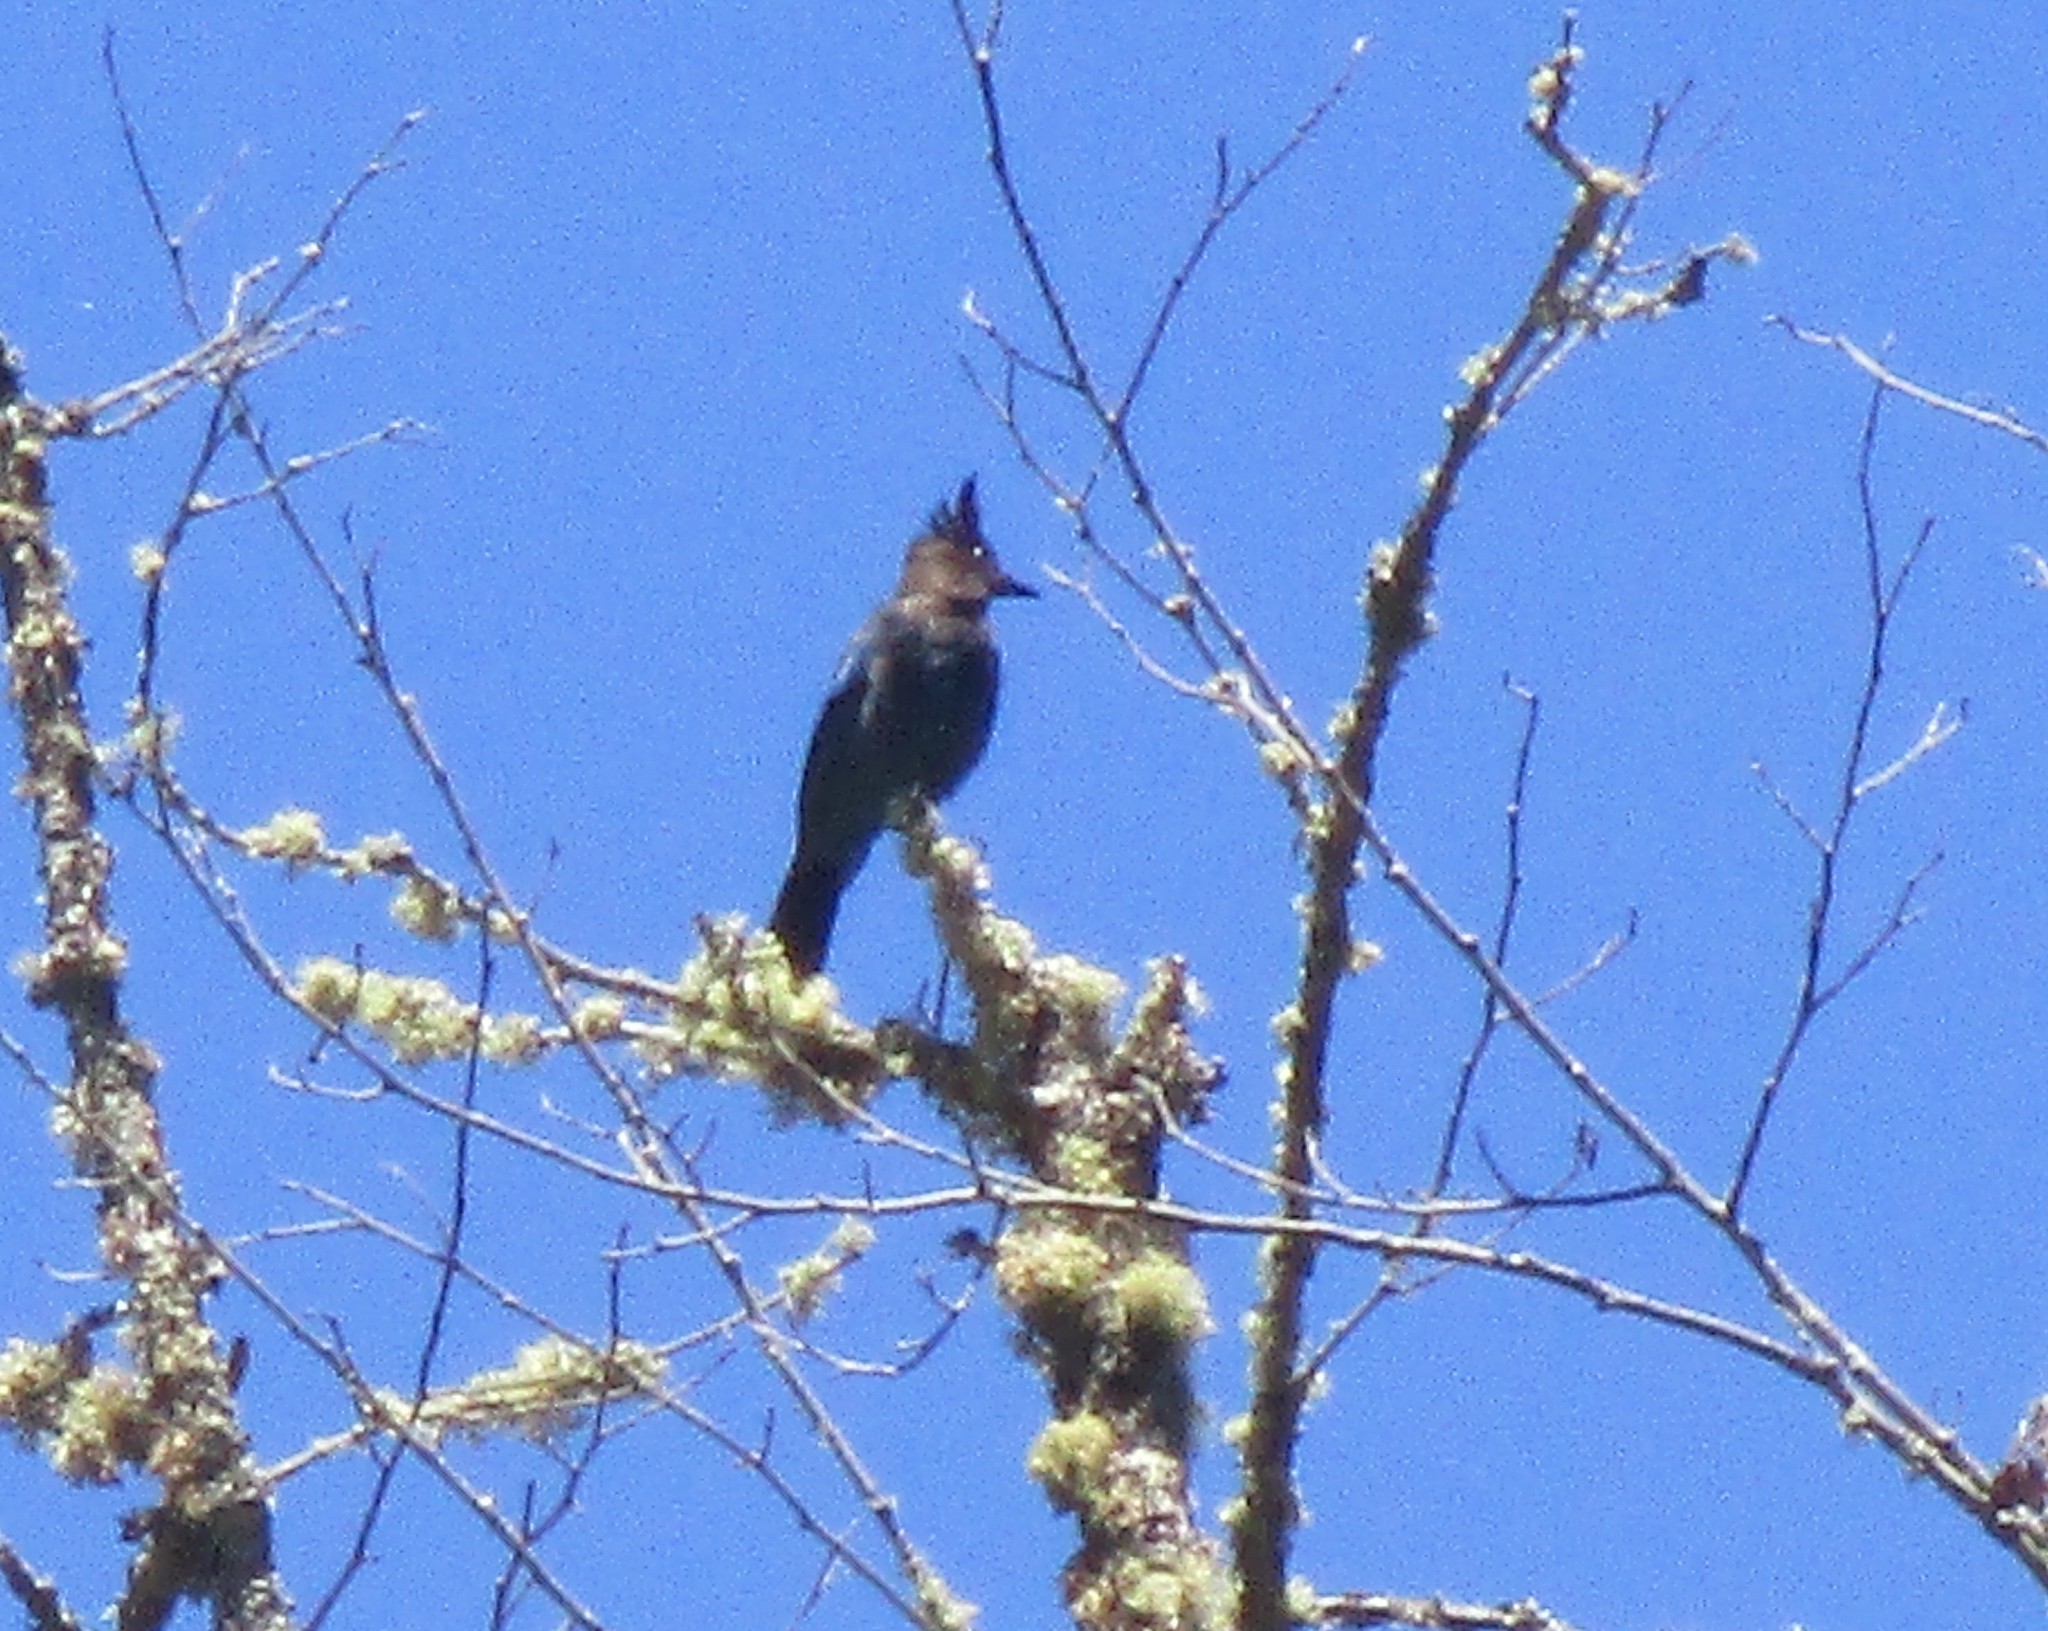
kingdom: Animalia
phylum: Chordata
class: Aves
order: Passeriformes
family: Corvidae
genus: Cyanocitta
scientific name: Cyanocitta stelleri
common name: Steller's jay
